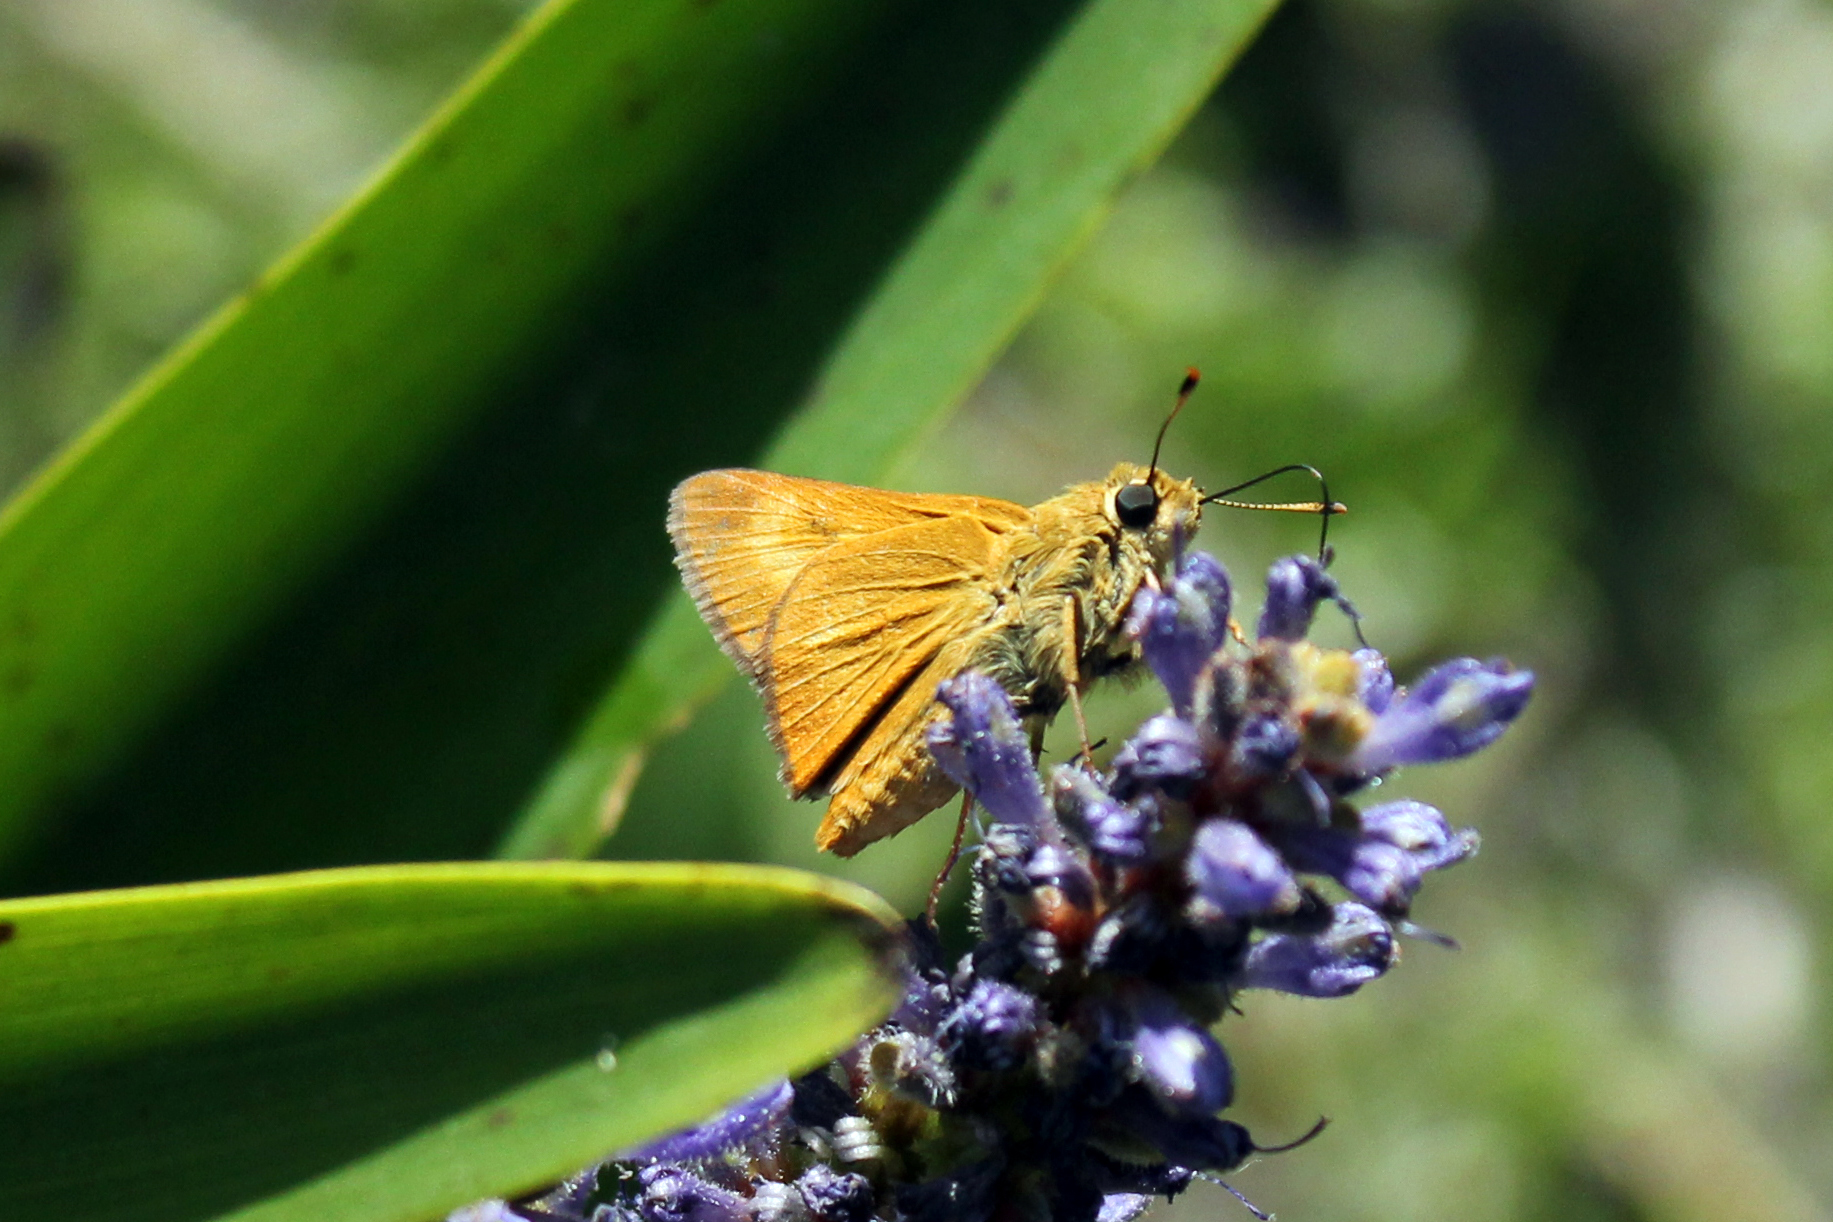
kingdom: Animalia
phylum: Arthropoda
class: Insecta
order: Lepidoptera
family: Hesperiidae
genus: Problema
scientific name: Problema byssus
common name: Byssus skipper
